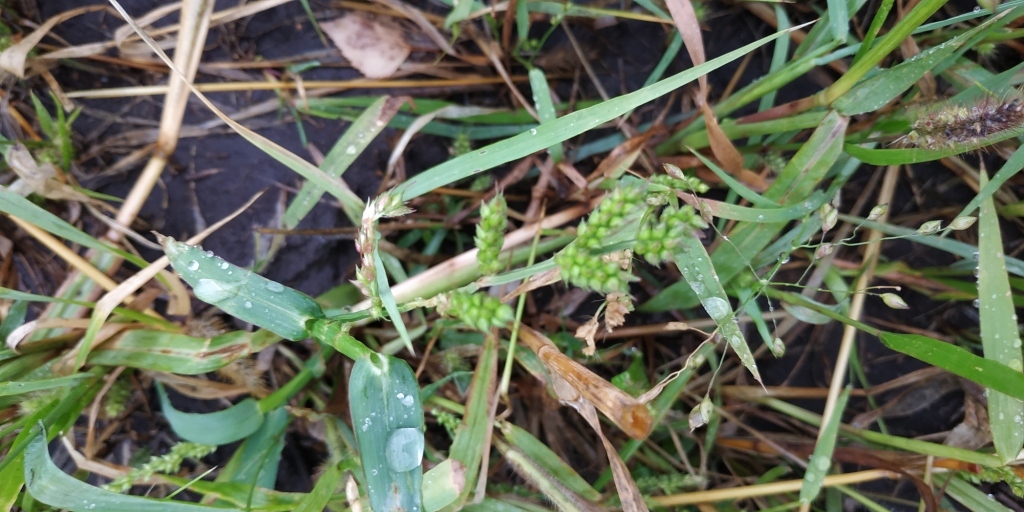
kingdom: Plantae
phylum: Tracheophyta
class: Liliopsida
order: Poales
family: Poaceae
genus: Echinochloa
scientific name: Echinochloa crus-galli
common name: Cockspur
